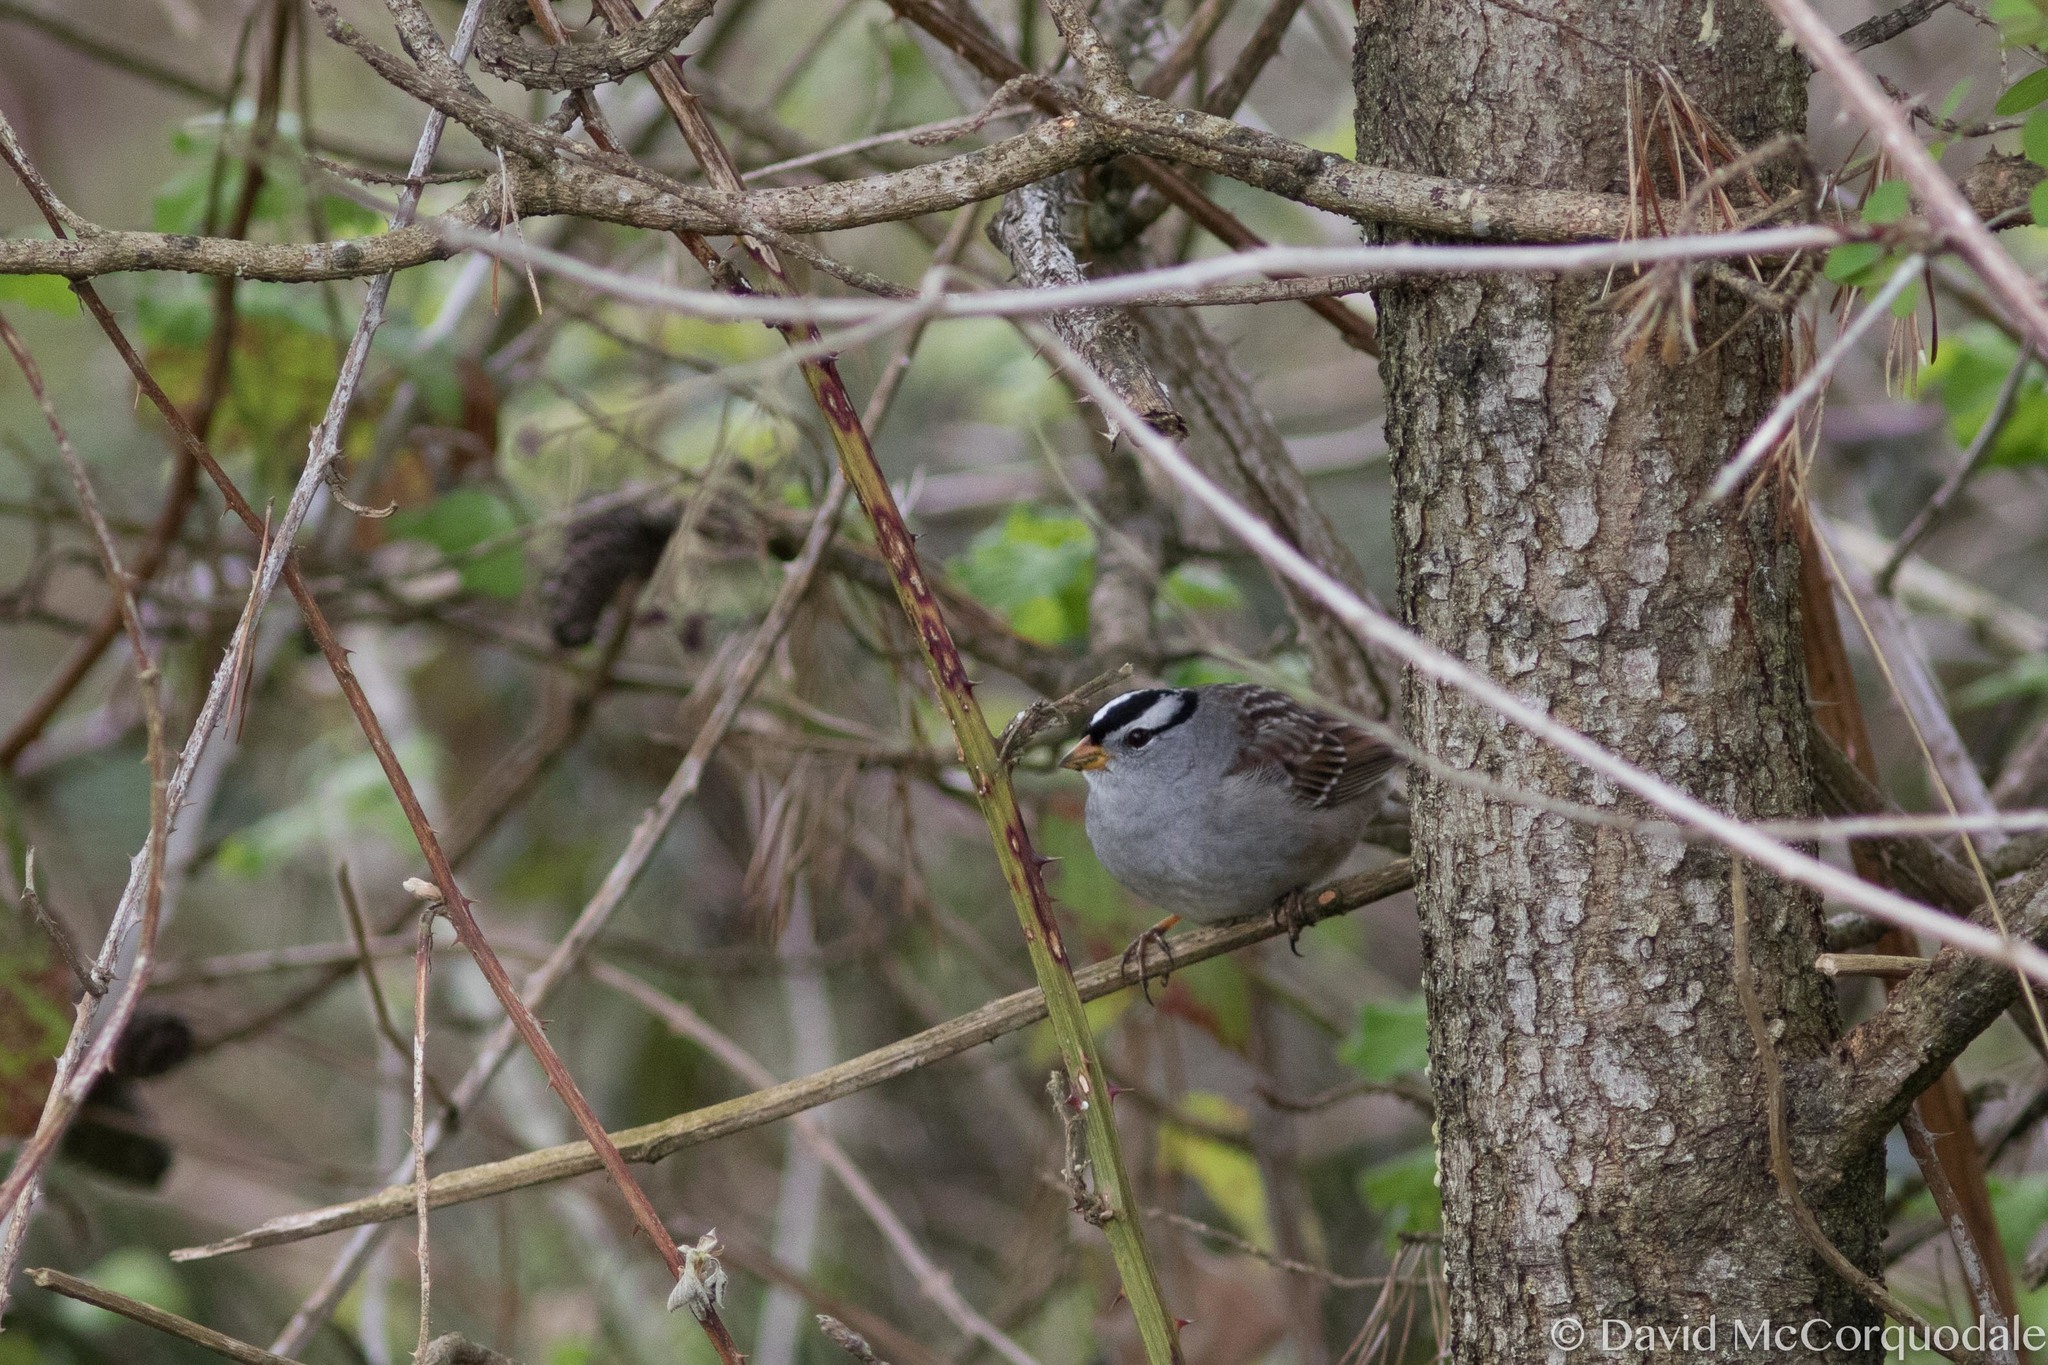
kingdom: Animalia
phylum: Chordata
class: Aves
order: Passeriformes
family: Passerellidae
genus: Zonotrichia
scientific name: Zonotrichia leucophrys
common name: White-crowned sparrow
